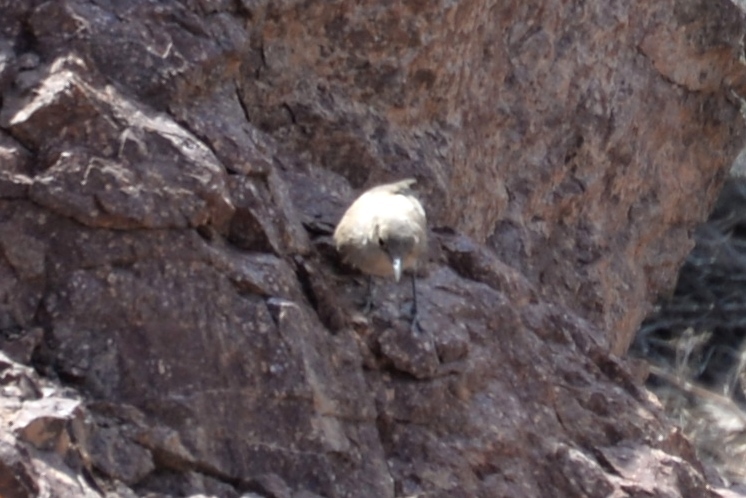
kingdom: Animalia
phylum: Chordata
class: Aves
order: Passeriformes
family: Troglodytidae
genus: Salpinctes
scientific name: Salpinctes obsoletus
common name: Rock wren
